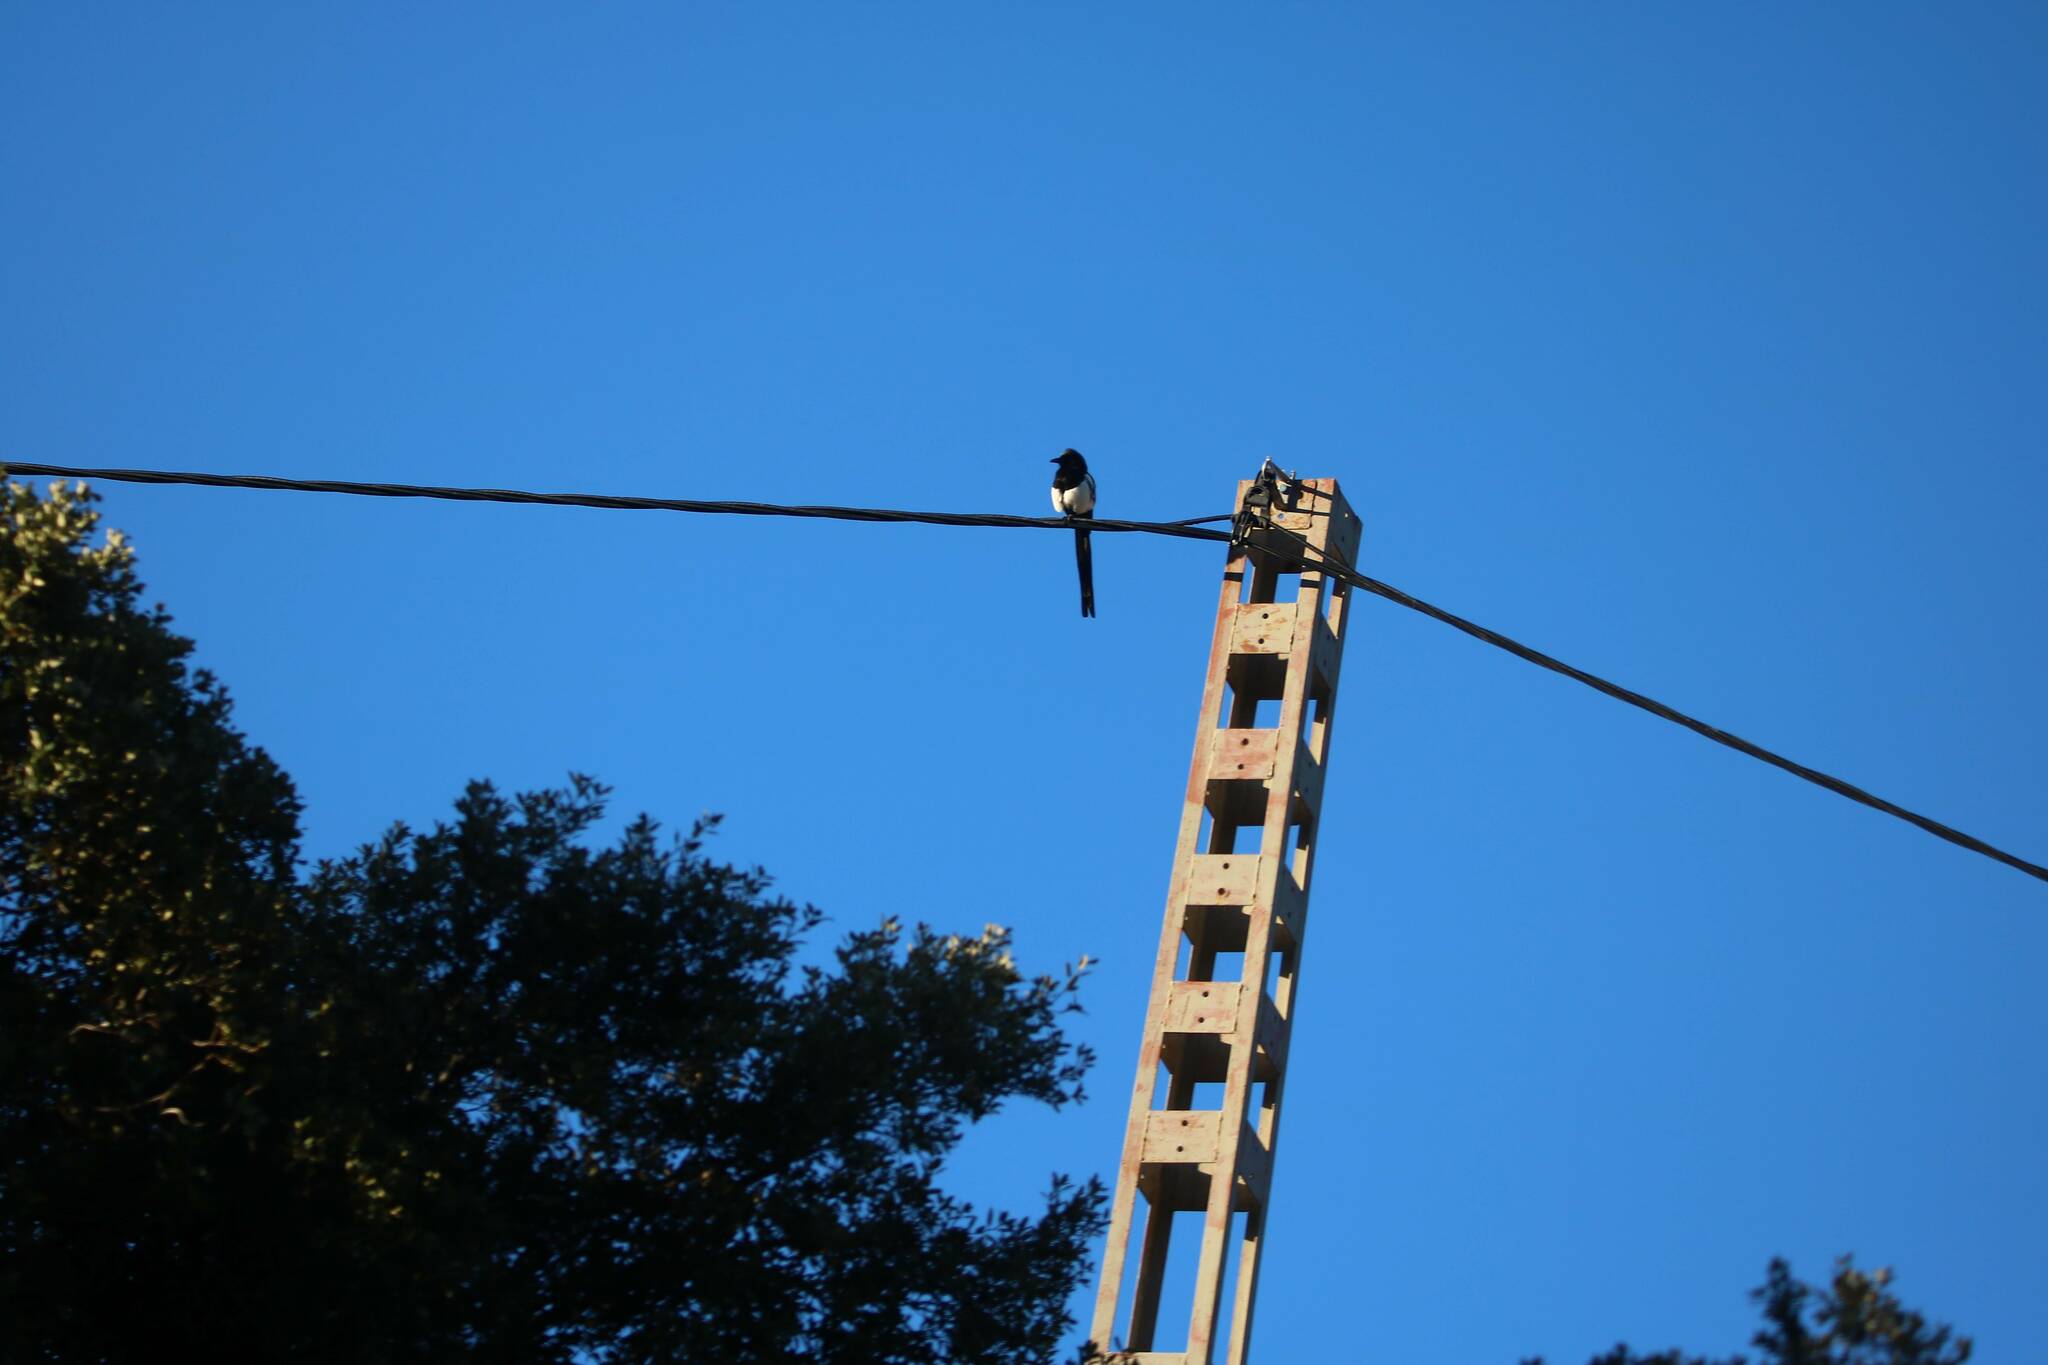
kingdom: Animalia
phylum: Chordata
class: Aves
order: Passeriformes
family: Corvidae
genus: Pica
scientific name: Pica mauritanica
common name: Maghreb magpie
